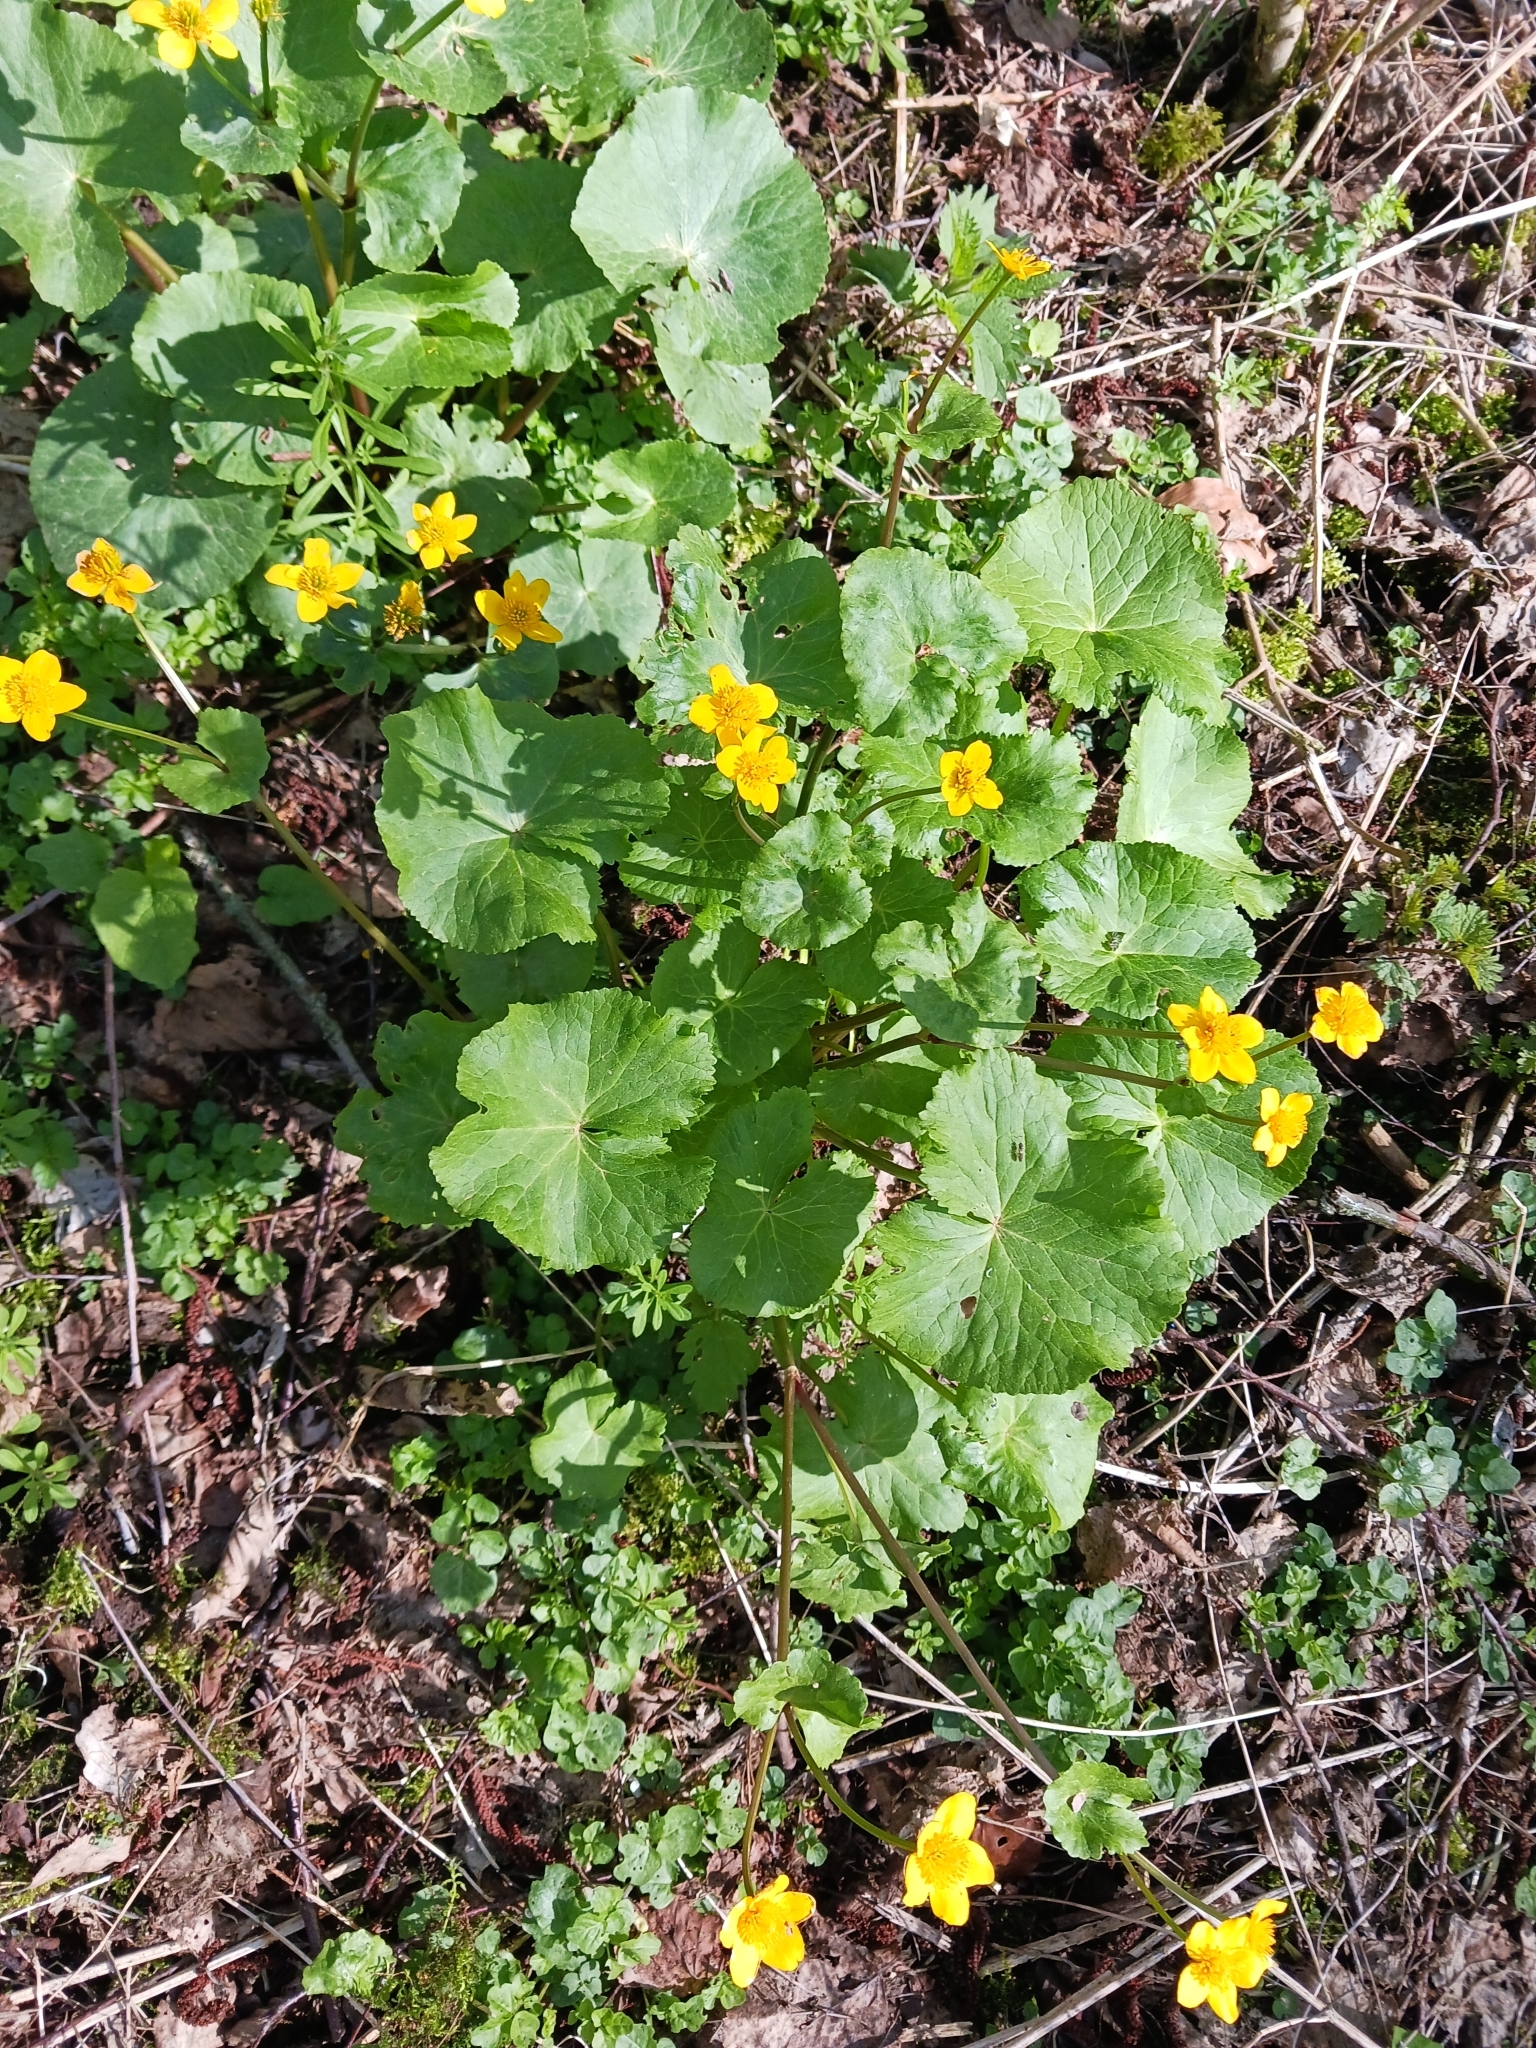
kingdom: Plantae
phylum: Tracheophyta
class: Magnoliopsida
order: Ranunculales
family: Ranunculaceae
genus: Caltha
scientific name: Caltha palustris
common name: Marsh marigold
